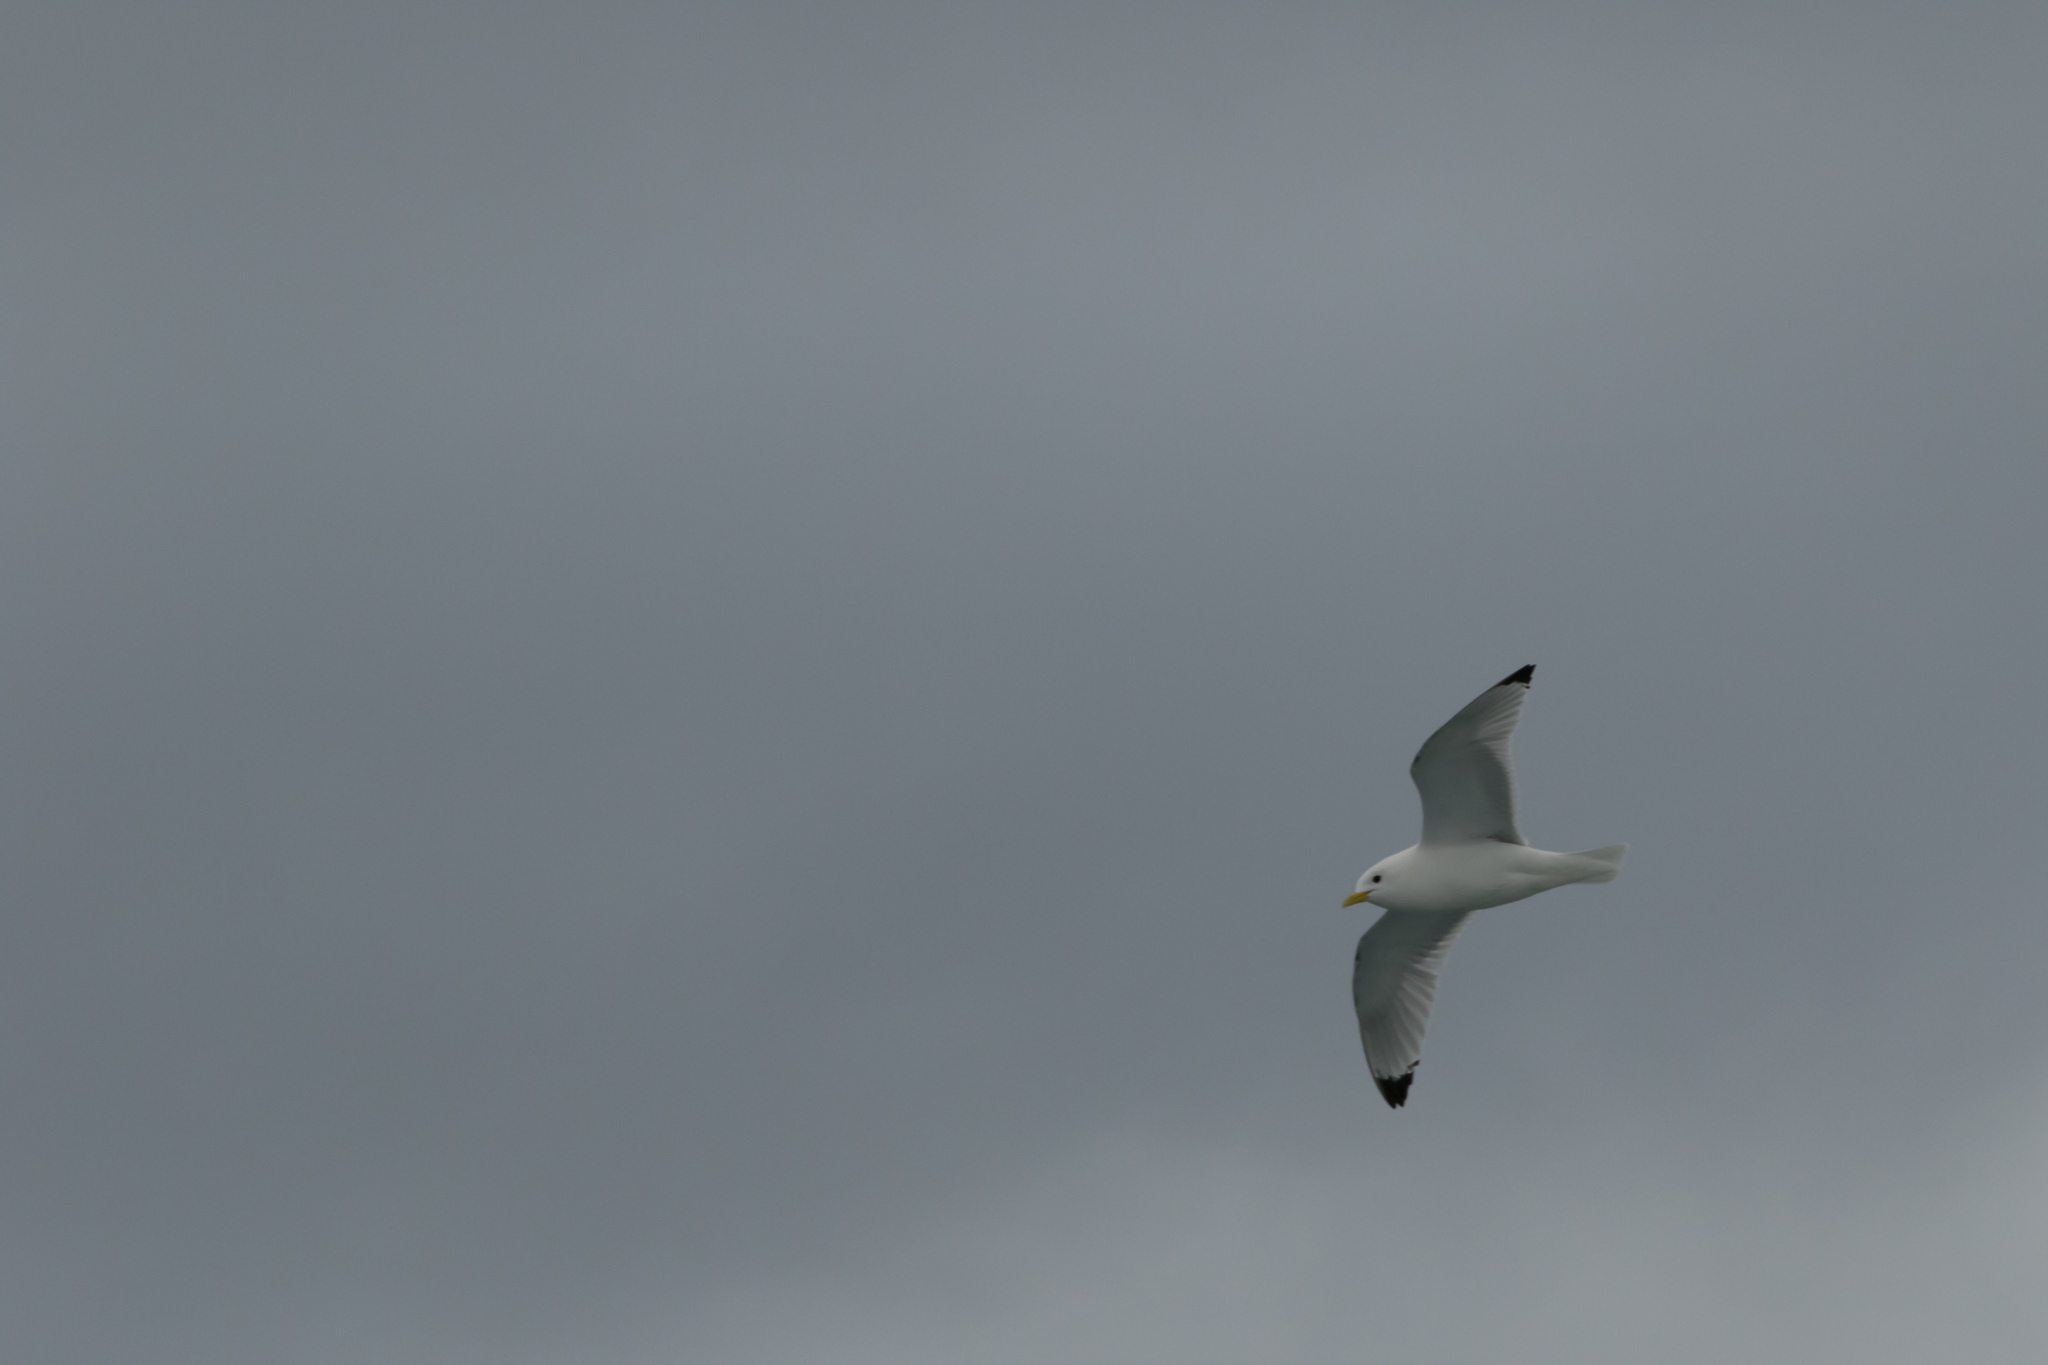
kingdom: Animalia
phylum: Chordata
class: Aves
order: Charadriiformes
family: Laridae
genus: Rissa
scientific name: Rissa tridactyla
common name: Black-legged kittiwake
